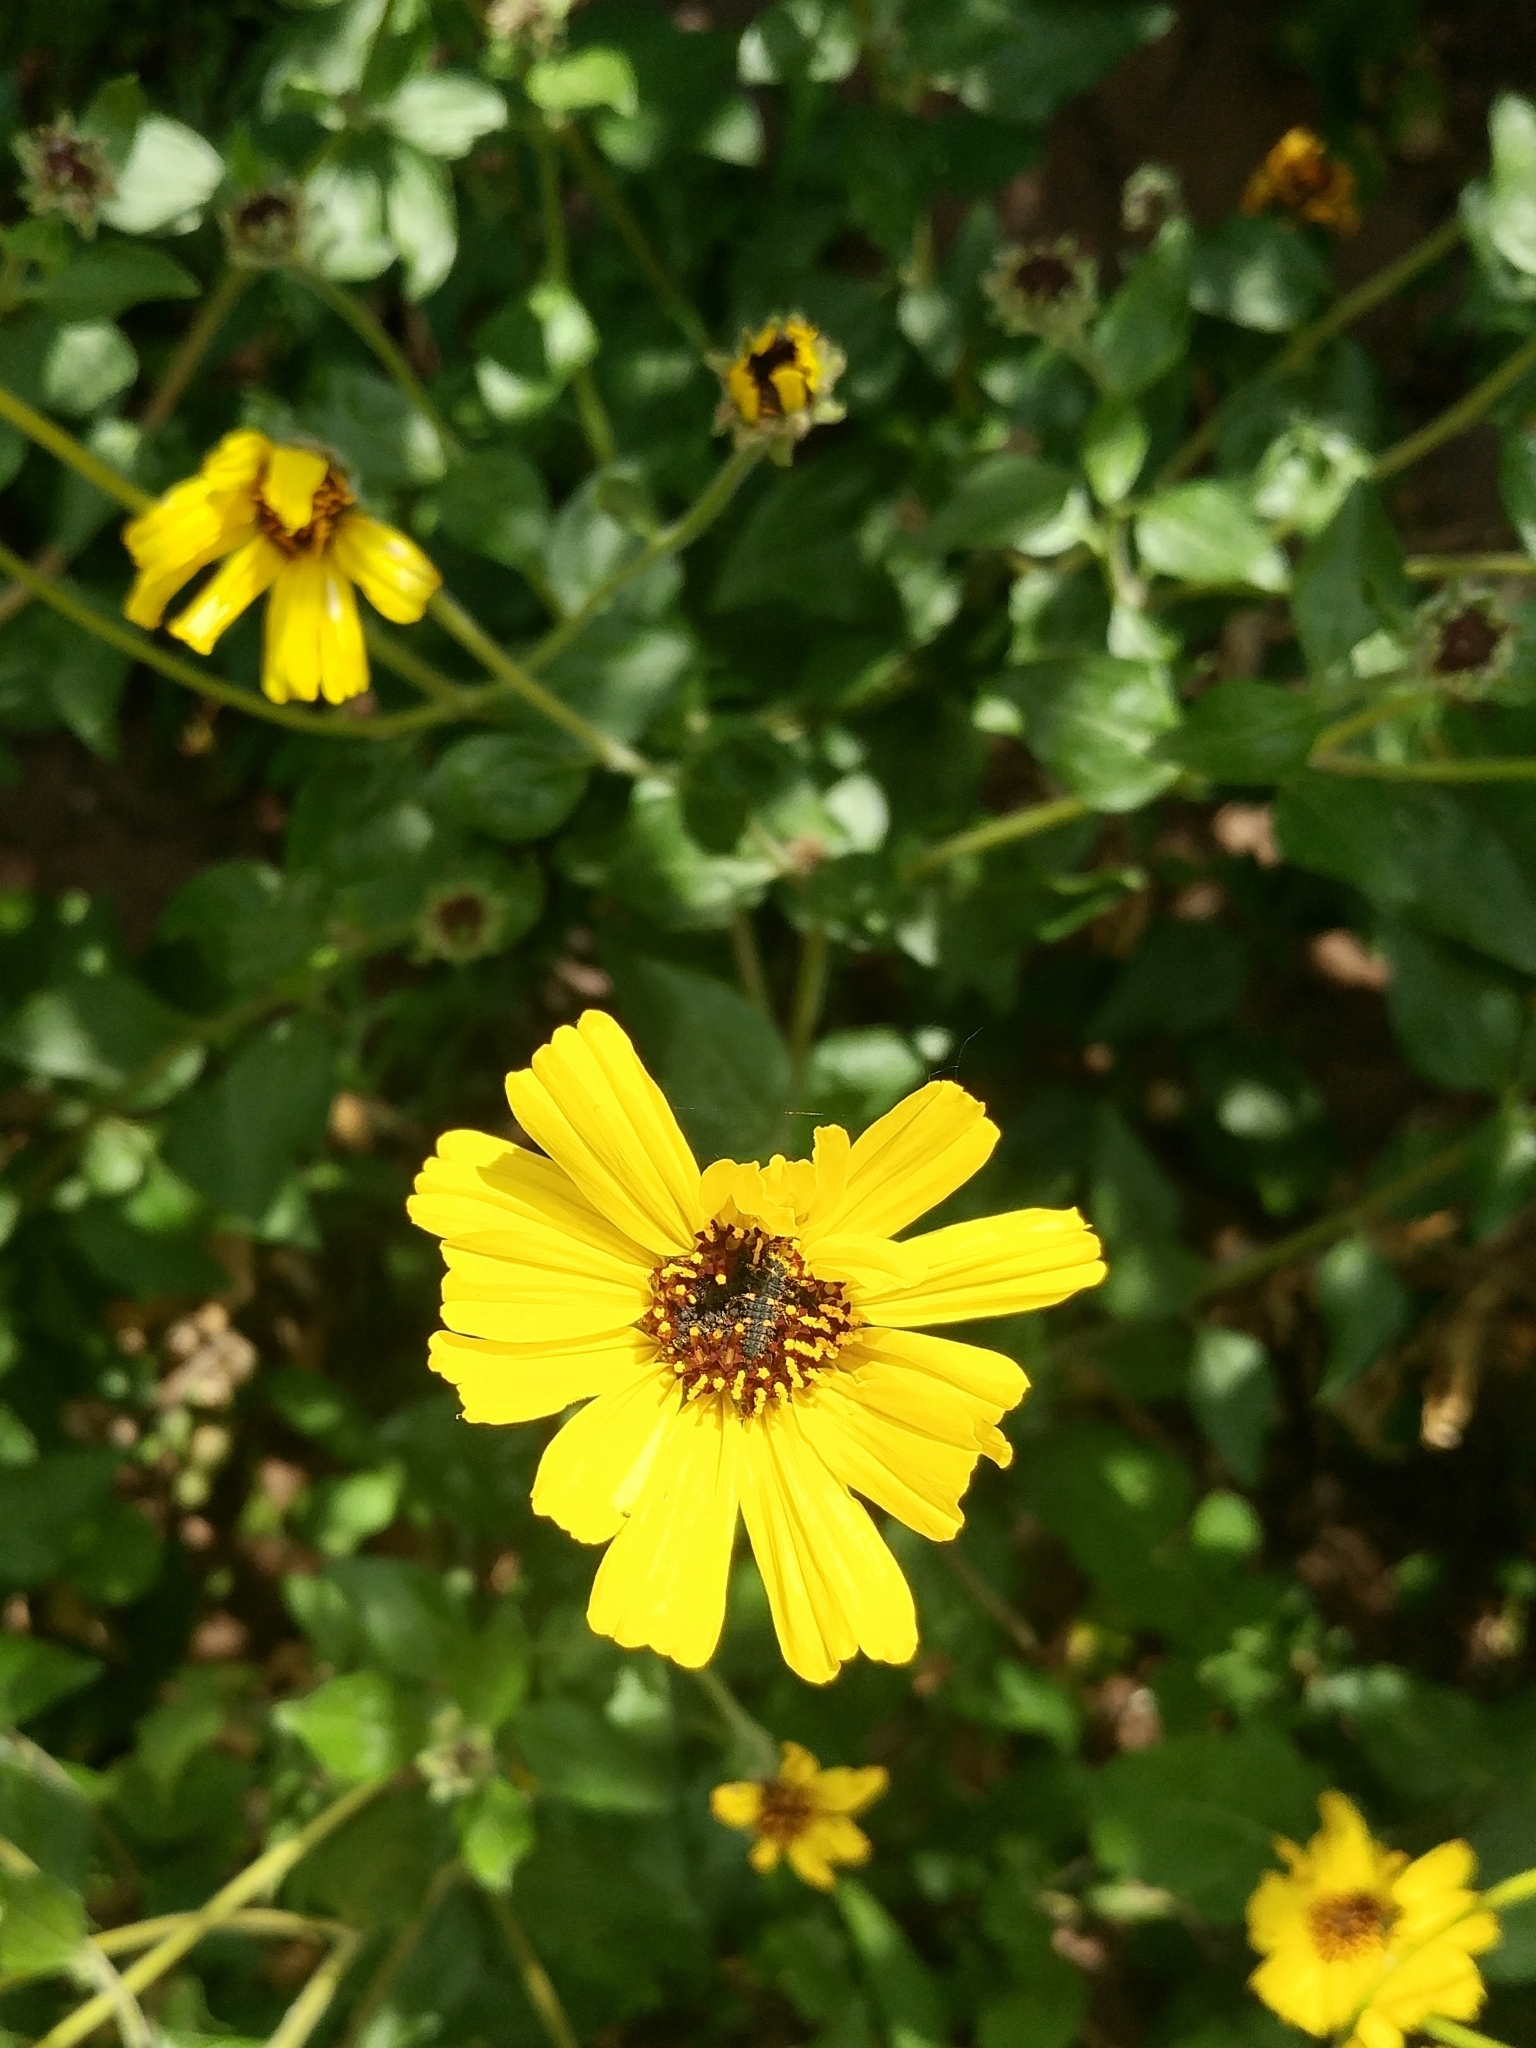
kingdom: Plantae
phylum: Tracheophyta
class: Magnoliopsida
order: Asterales
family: Asteraceae
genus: Encelia
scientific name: Encelia californica
